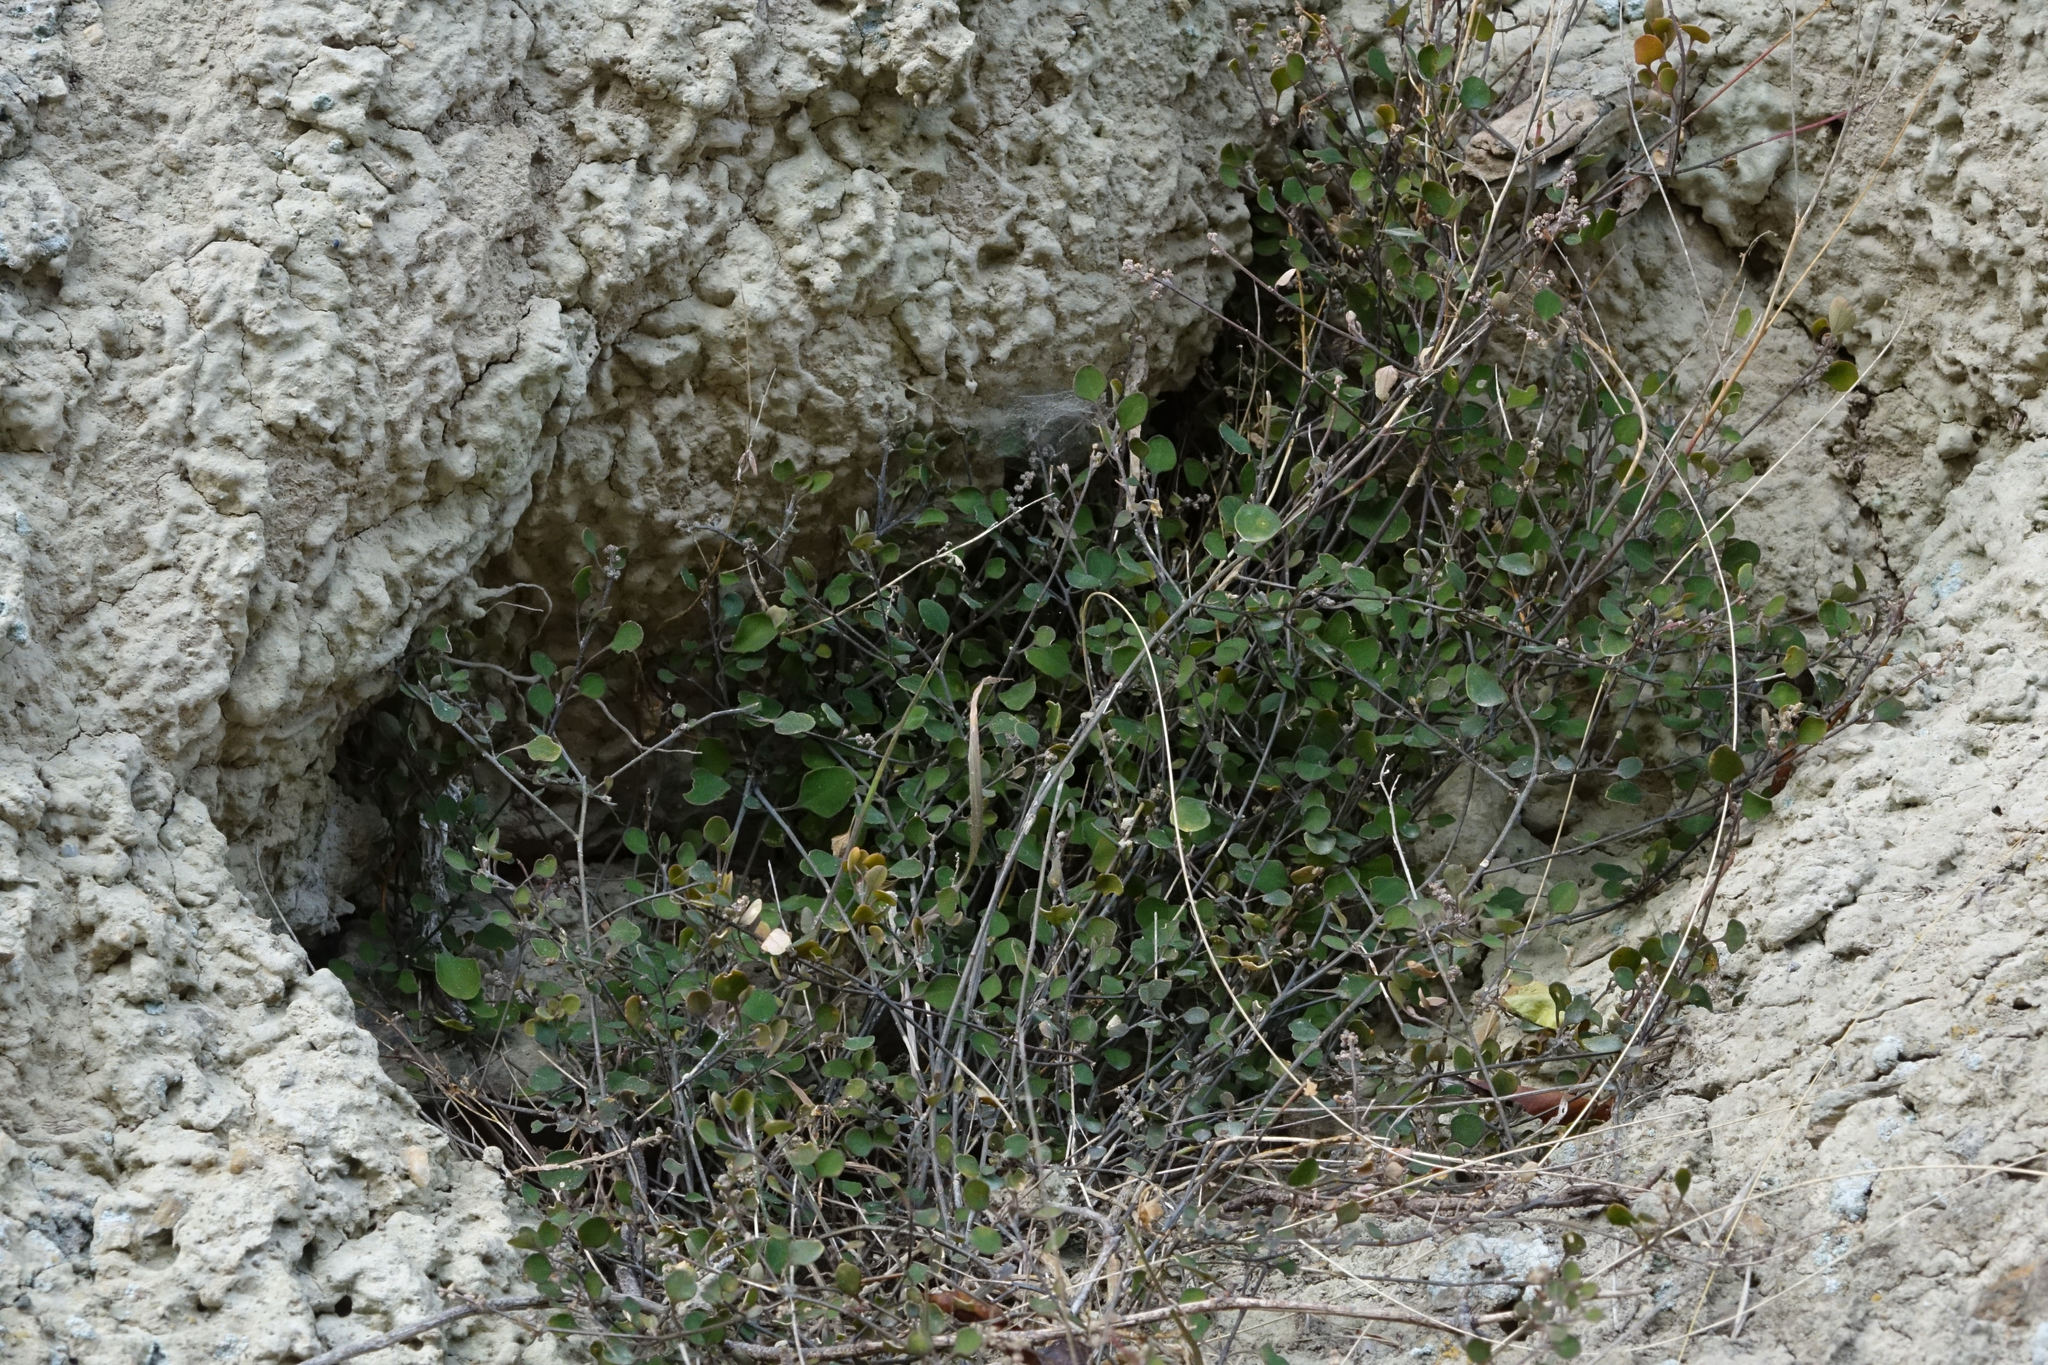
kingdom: Plantae
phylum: Tracheophyta
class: Magnoliopsida
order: Caryophyllales
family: Amaranthaceae
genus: Chenopodium
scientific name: Chenopodium allanii
